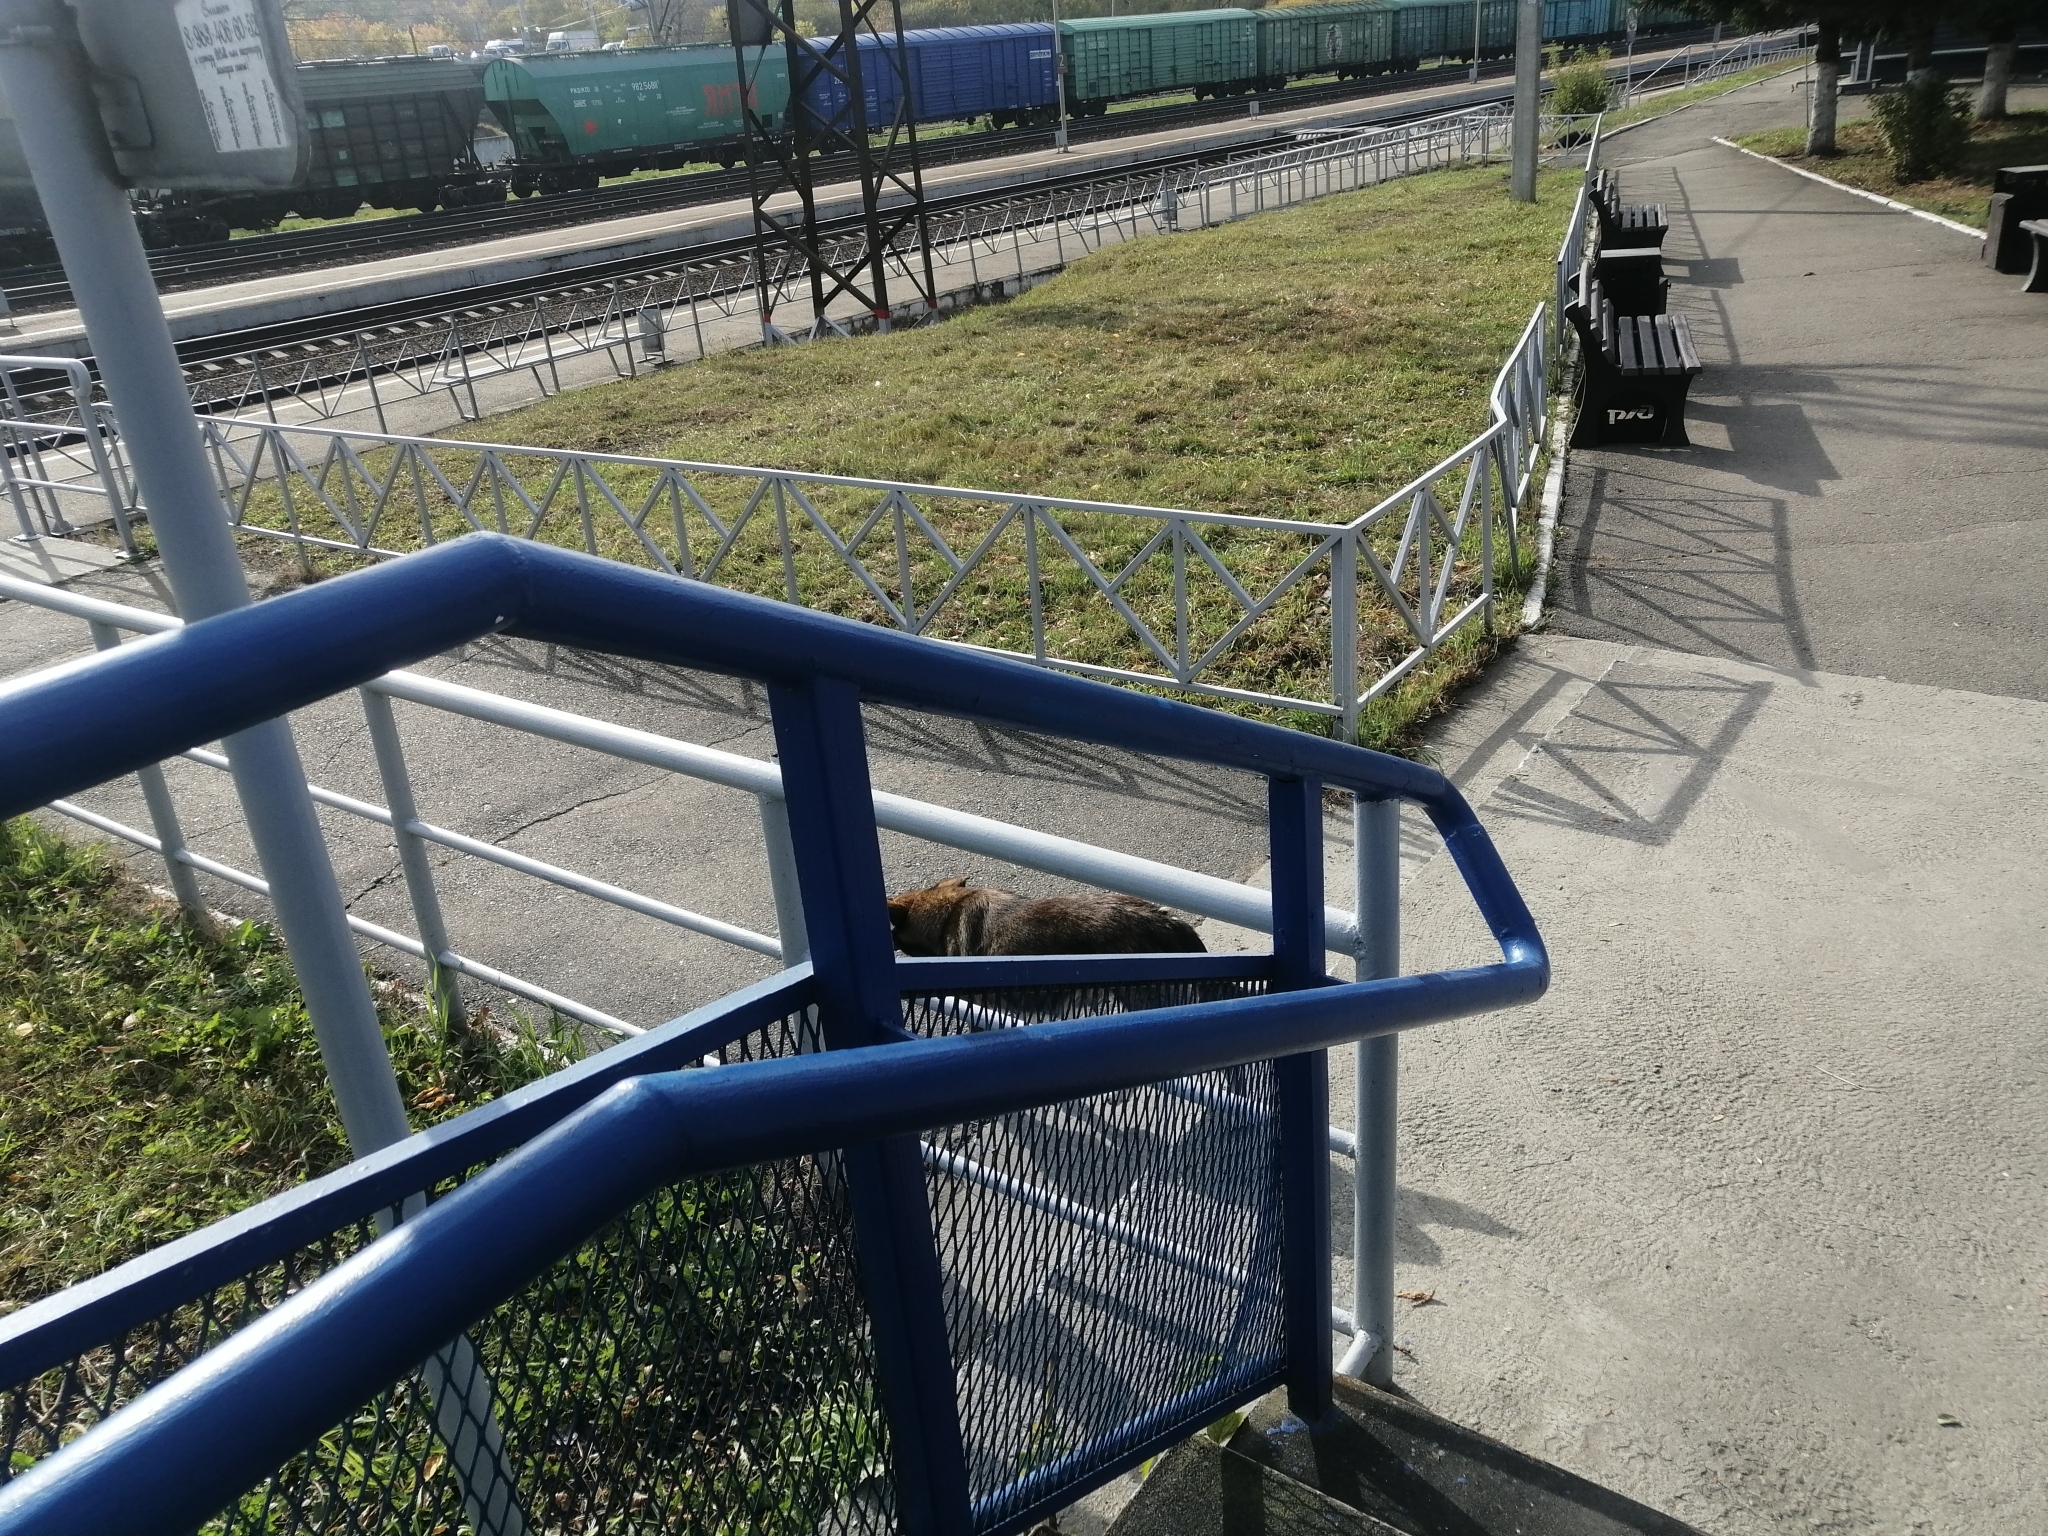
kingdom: Animalia
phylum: Chordata
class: Mammalia
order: Carnivora
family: Canidae
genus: Canis
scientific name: Canis lupus
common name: Gray wolf
